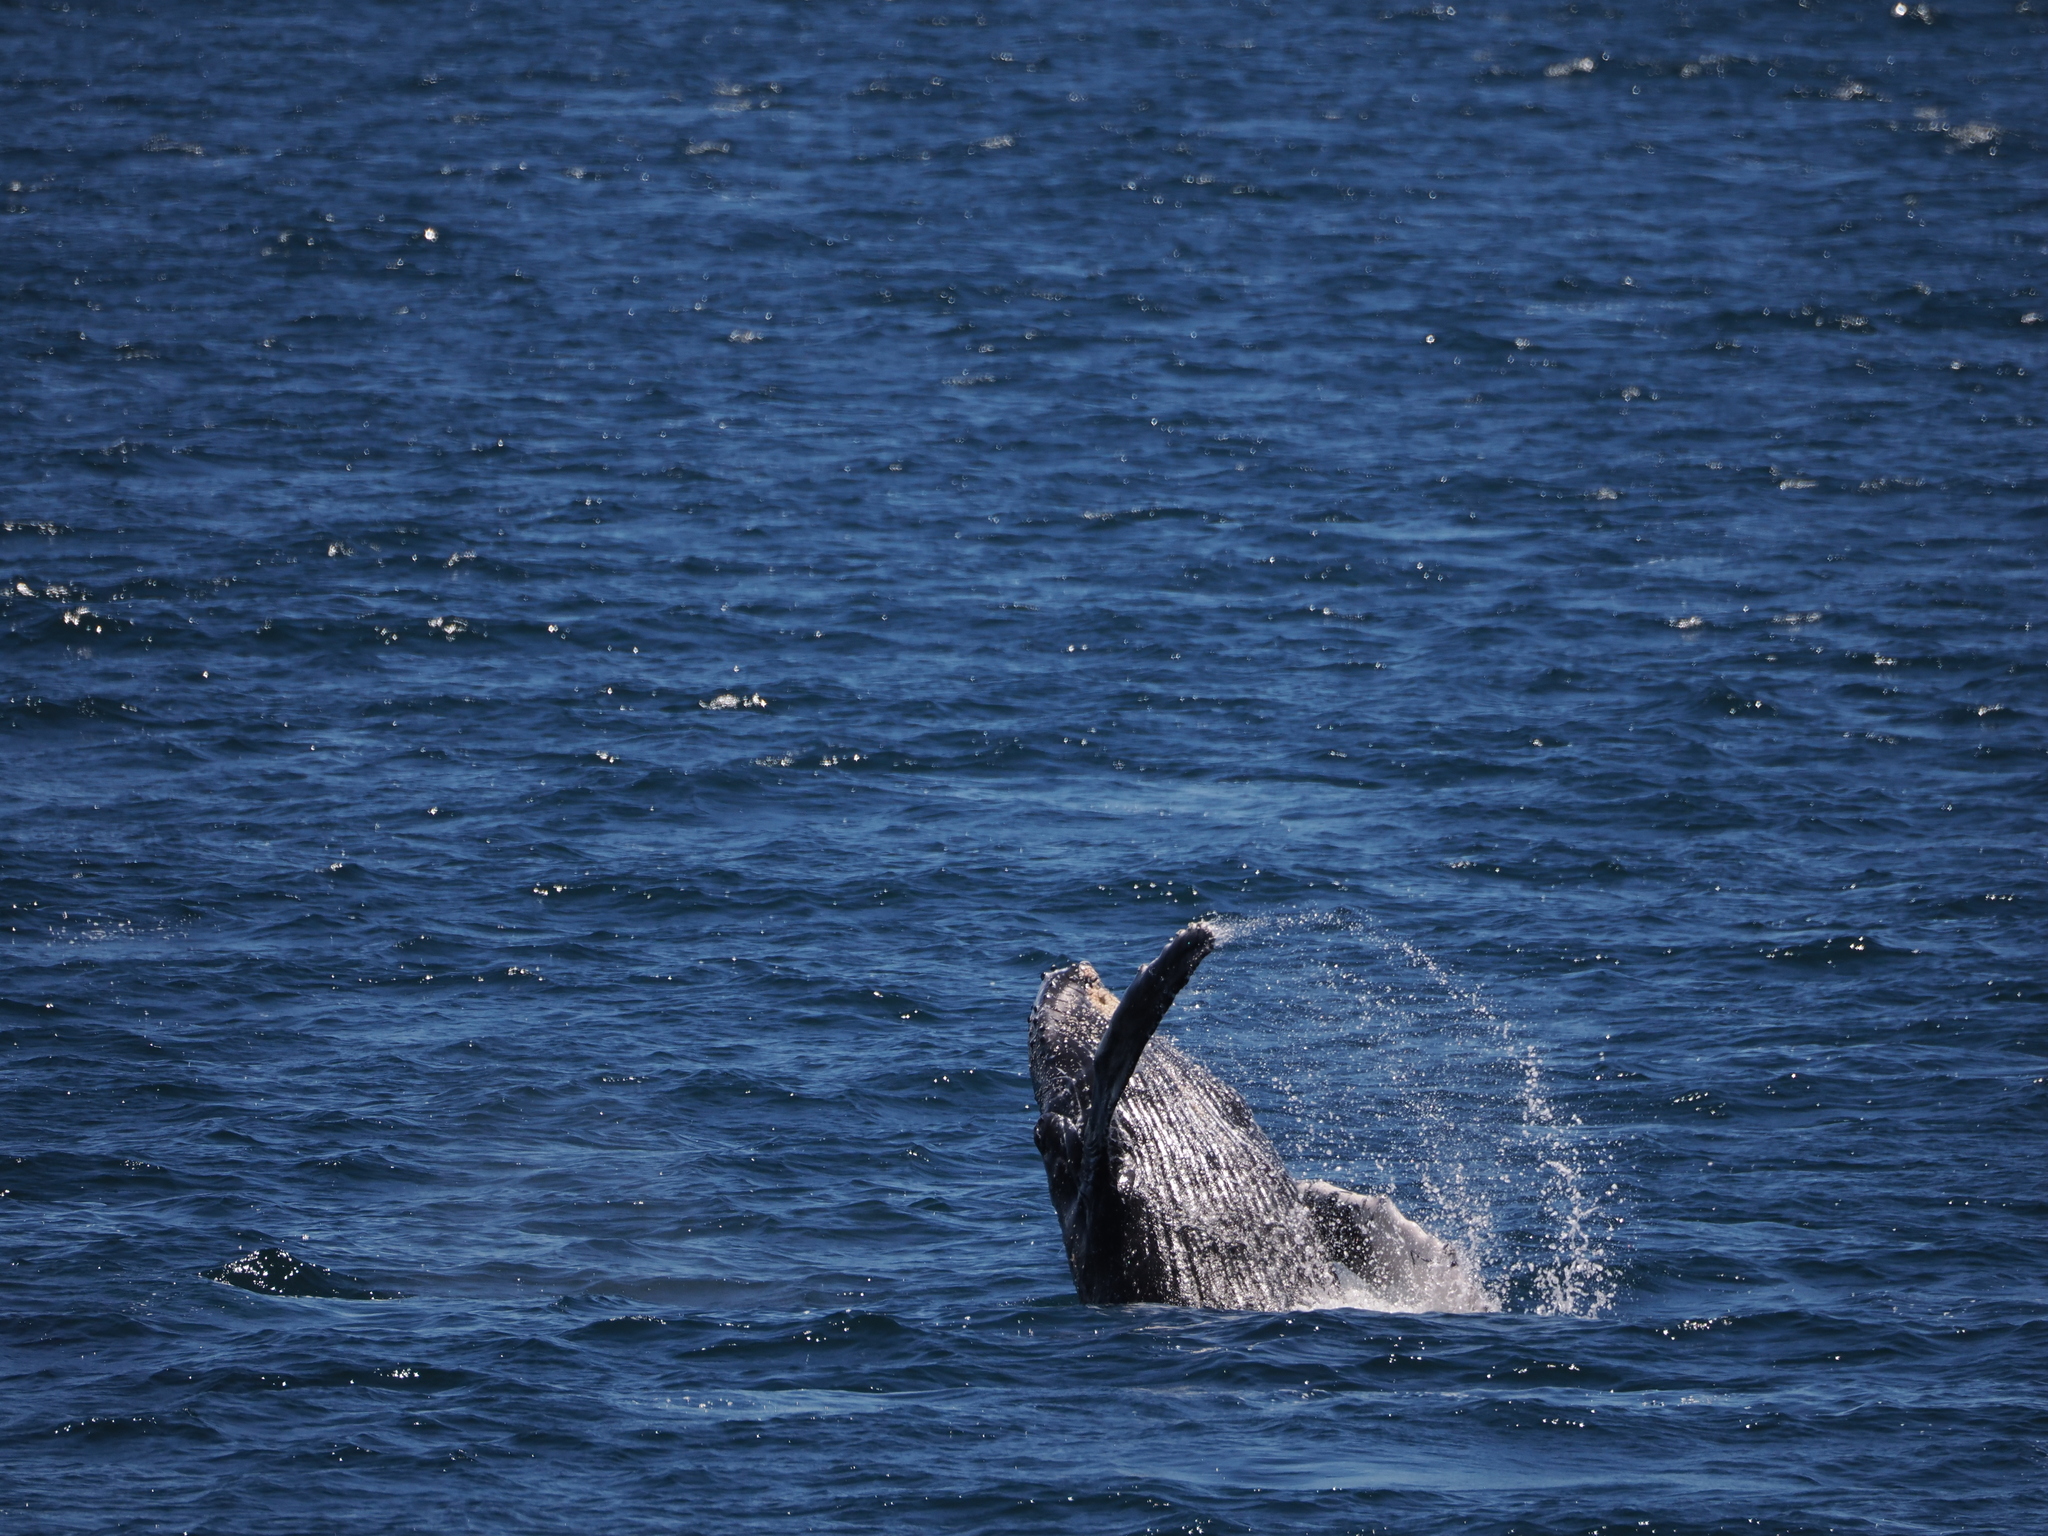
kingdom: Animalia
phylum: Chordata
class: Mammalia
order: Cetacea
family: Balaenopteridae
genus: Megaptera
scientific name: Megaptera novaeangliae
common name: Humpback whale
